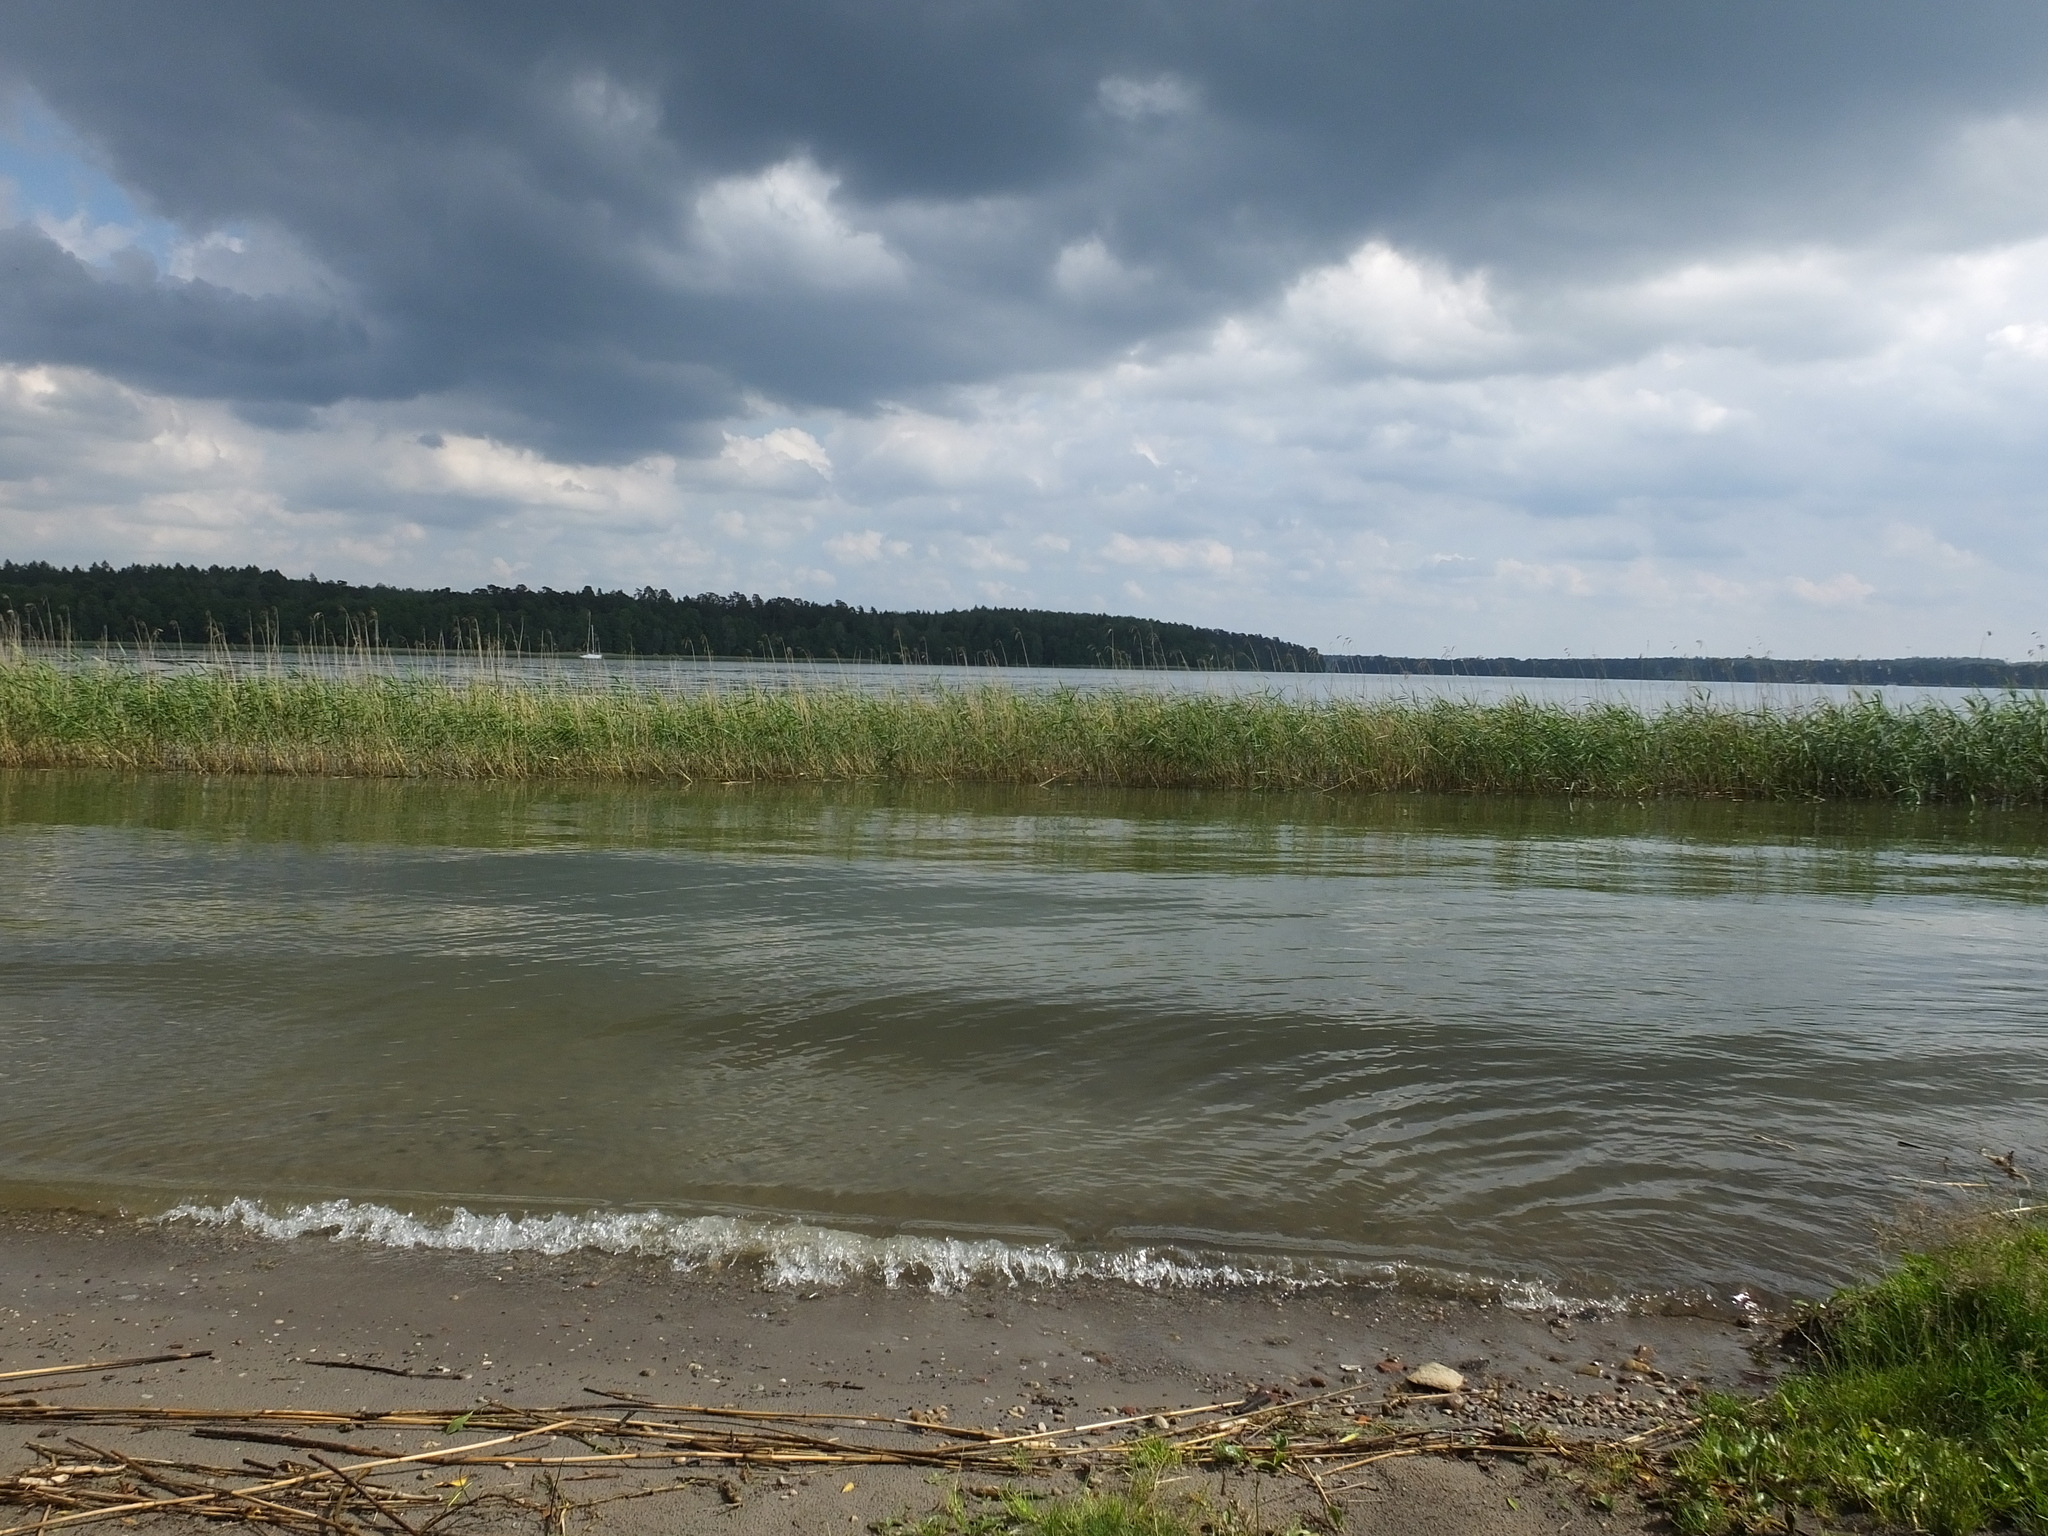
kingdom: Plantae
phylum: Tracheophyta
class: Liliopsida
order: Poales
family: Poaceae
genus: Phragmites
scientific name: Phragmites australis
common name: Common reed
